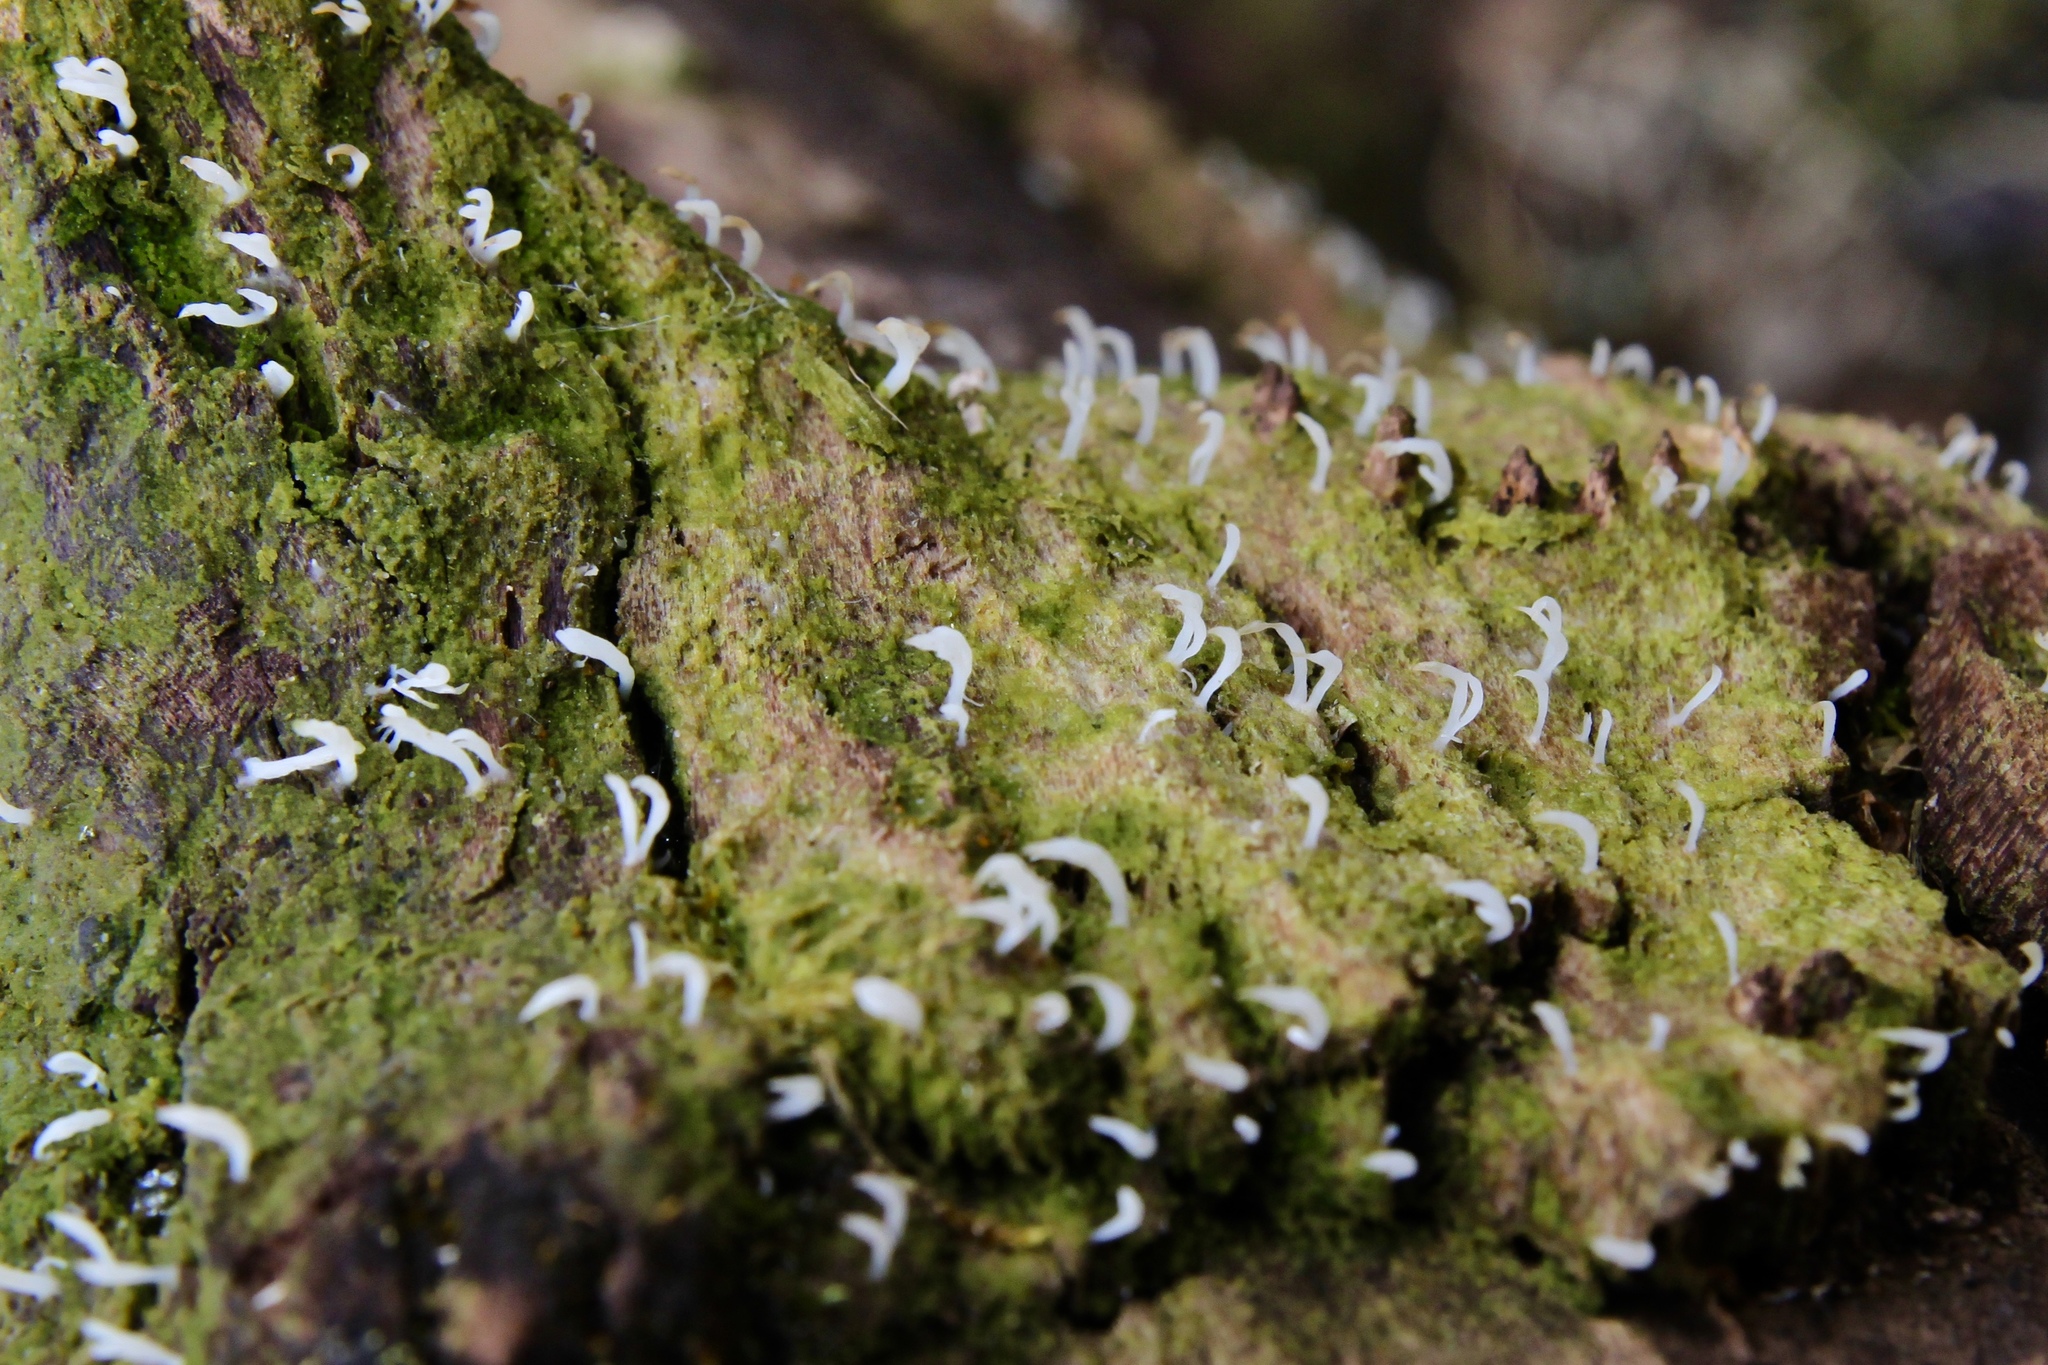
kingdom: Fungi
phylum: Basidiomycota
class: Agaricomycetes
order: Cantharellales
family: Hydnaceae
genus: Multiclavula
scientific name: Multiclavula mucida
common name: White green-algae coral
